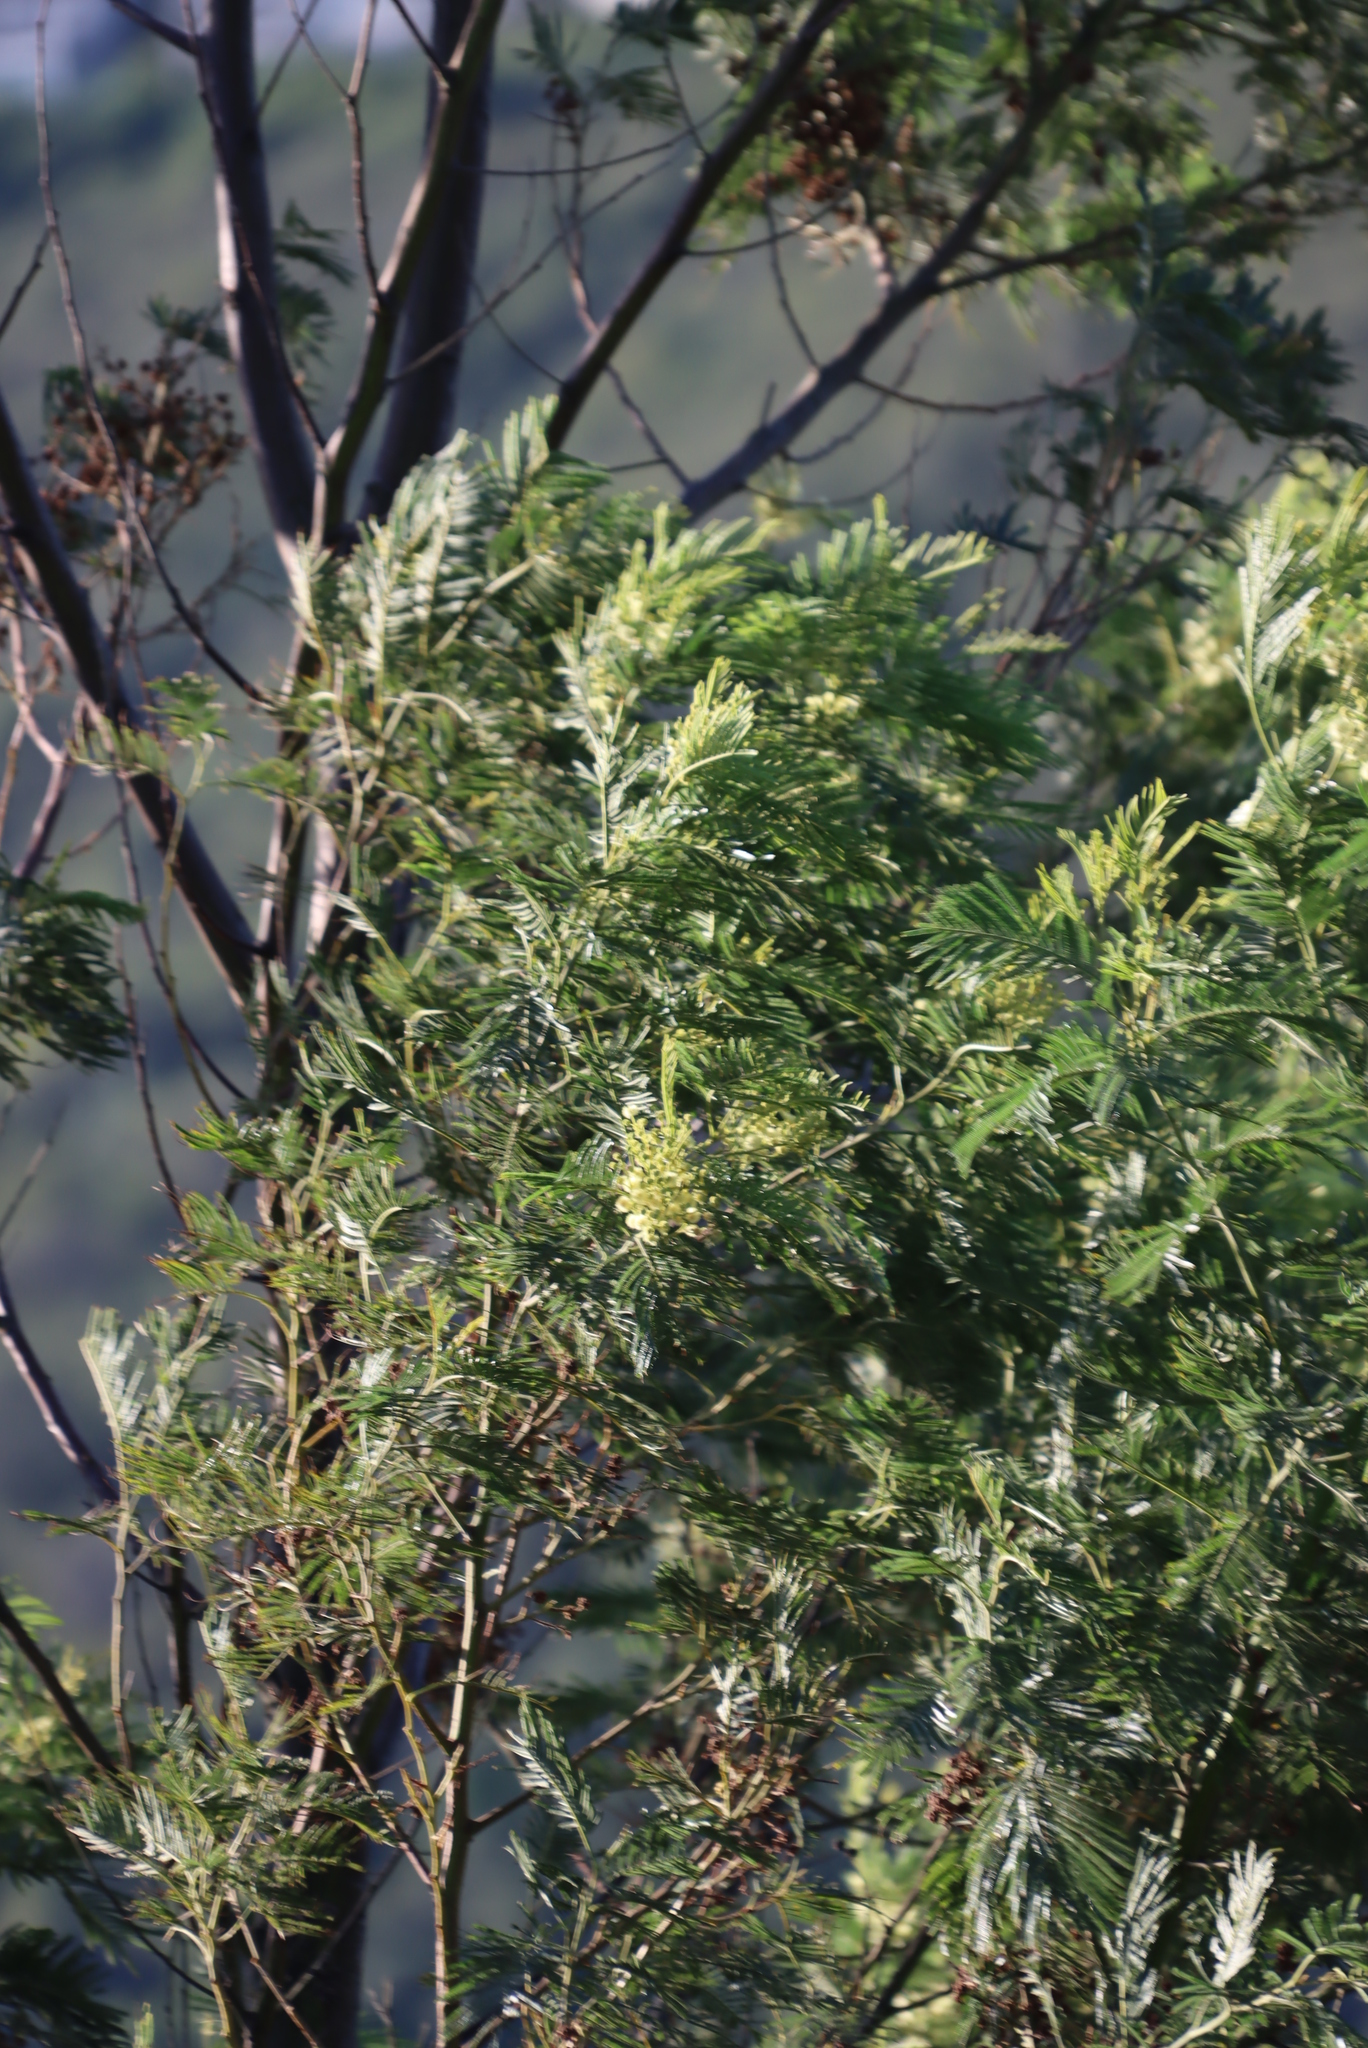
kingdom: Plantae
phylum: Tracheophyta
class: Magnoliopsida
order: Fabales
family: Fabaceae
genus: Acacia
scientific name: Acacia mearnsii
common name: Black wattle
